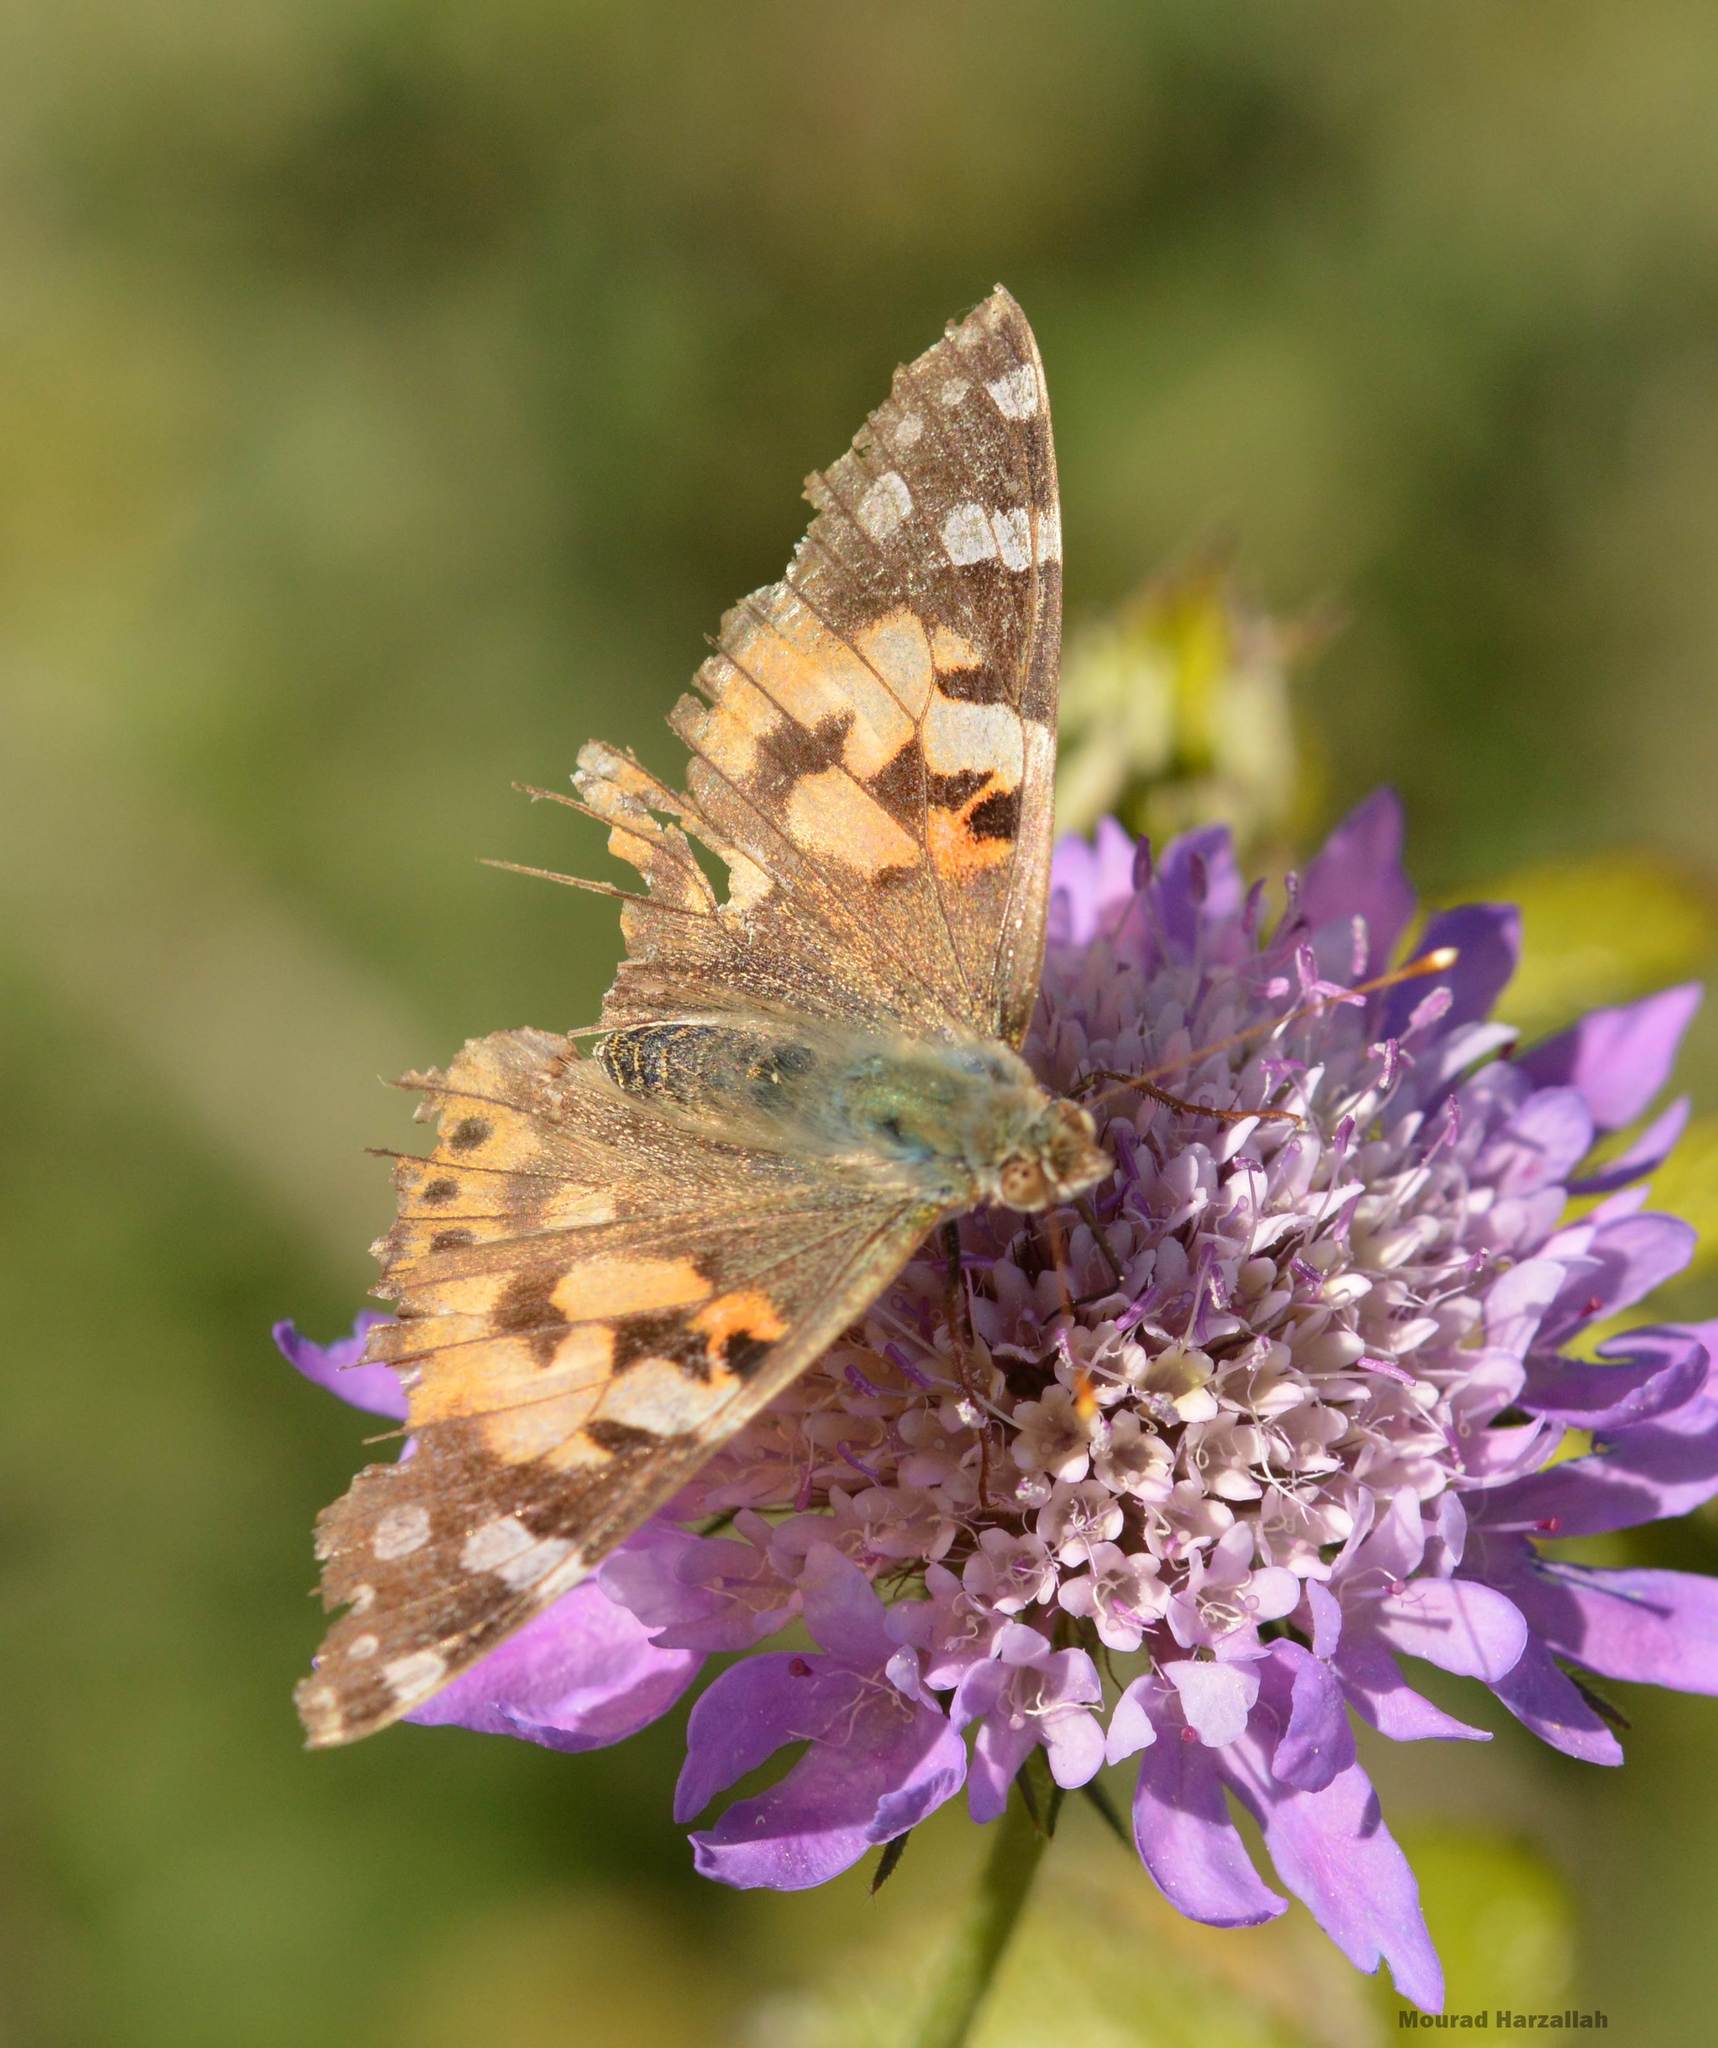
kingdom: Animalia
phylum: Arthropoda
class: Insecta
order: Lepidoptera
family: Nymphalidae
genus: Vanessa
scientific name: Vanessa cardui
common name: Painted lady
